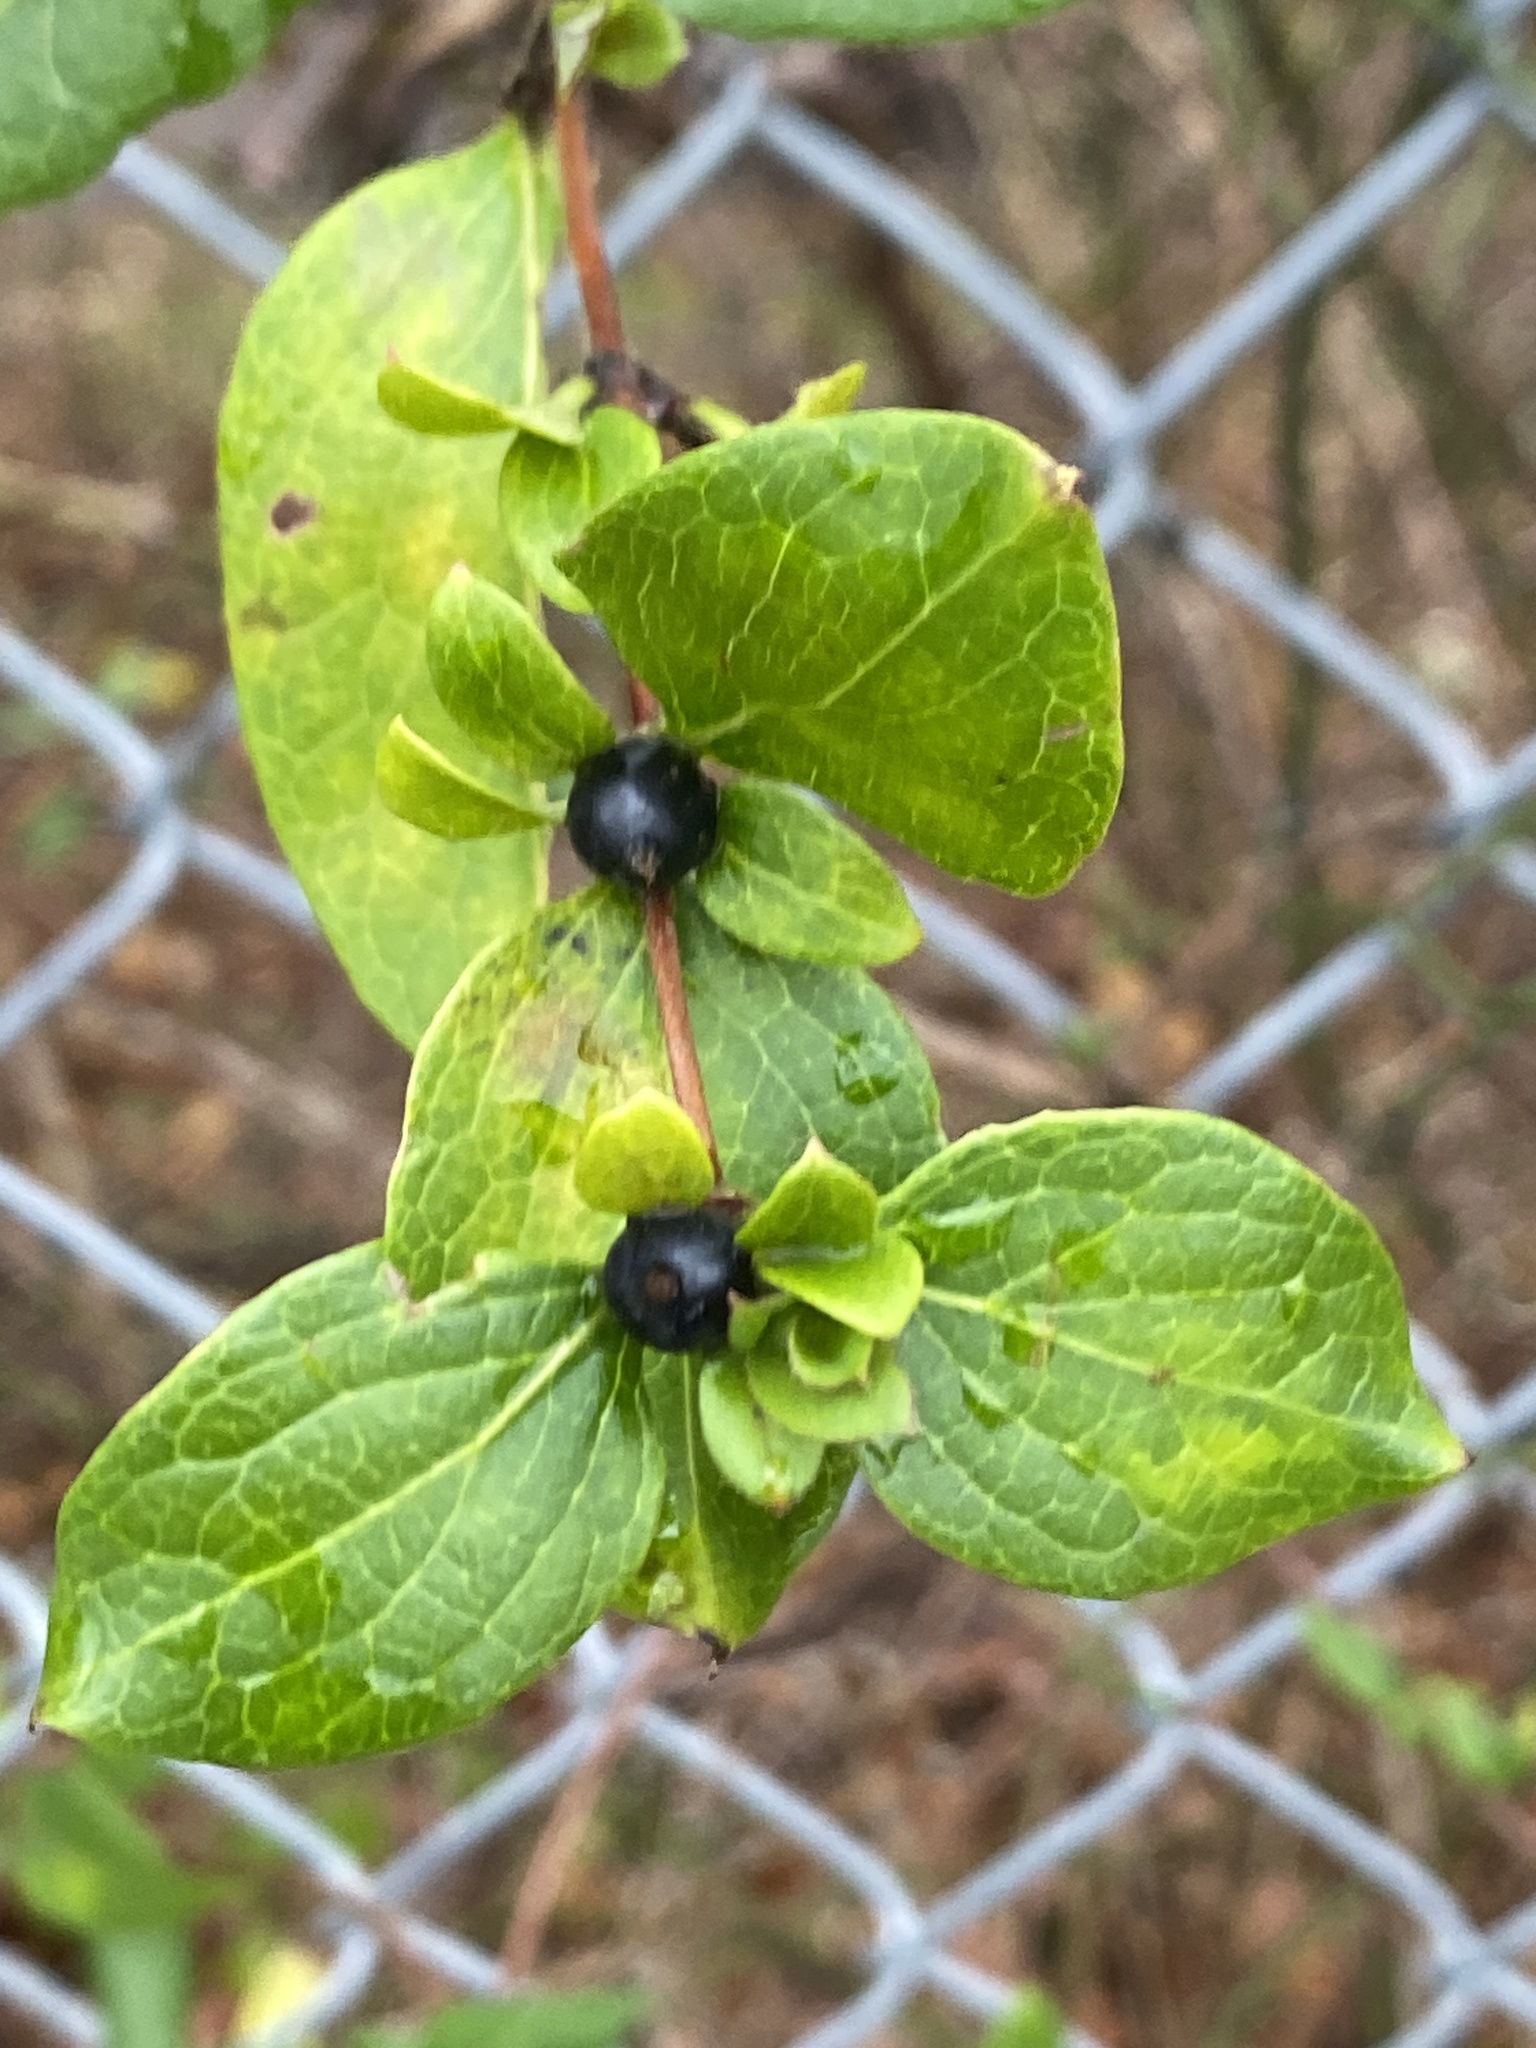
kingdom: Plantae
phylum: Tracheophyta
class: Magnoliopsida
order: Dipsacales
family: Caprifoliaceae
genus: Lonicera
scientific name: Lonicera japonica
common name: Japanese honeysuckle
